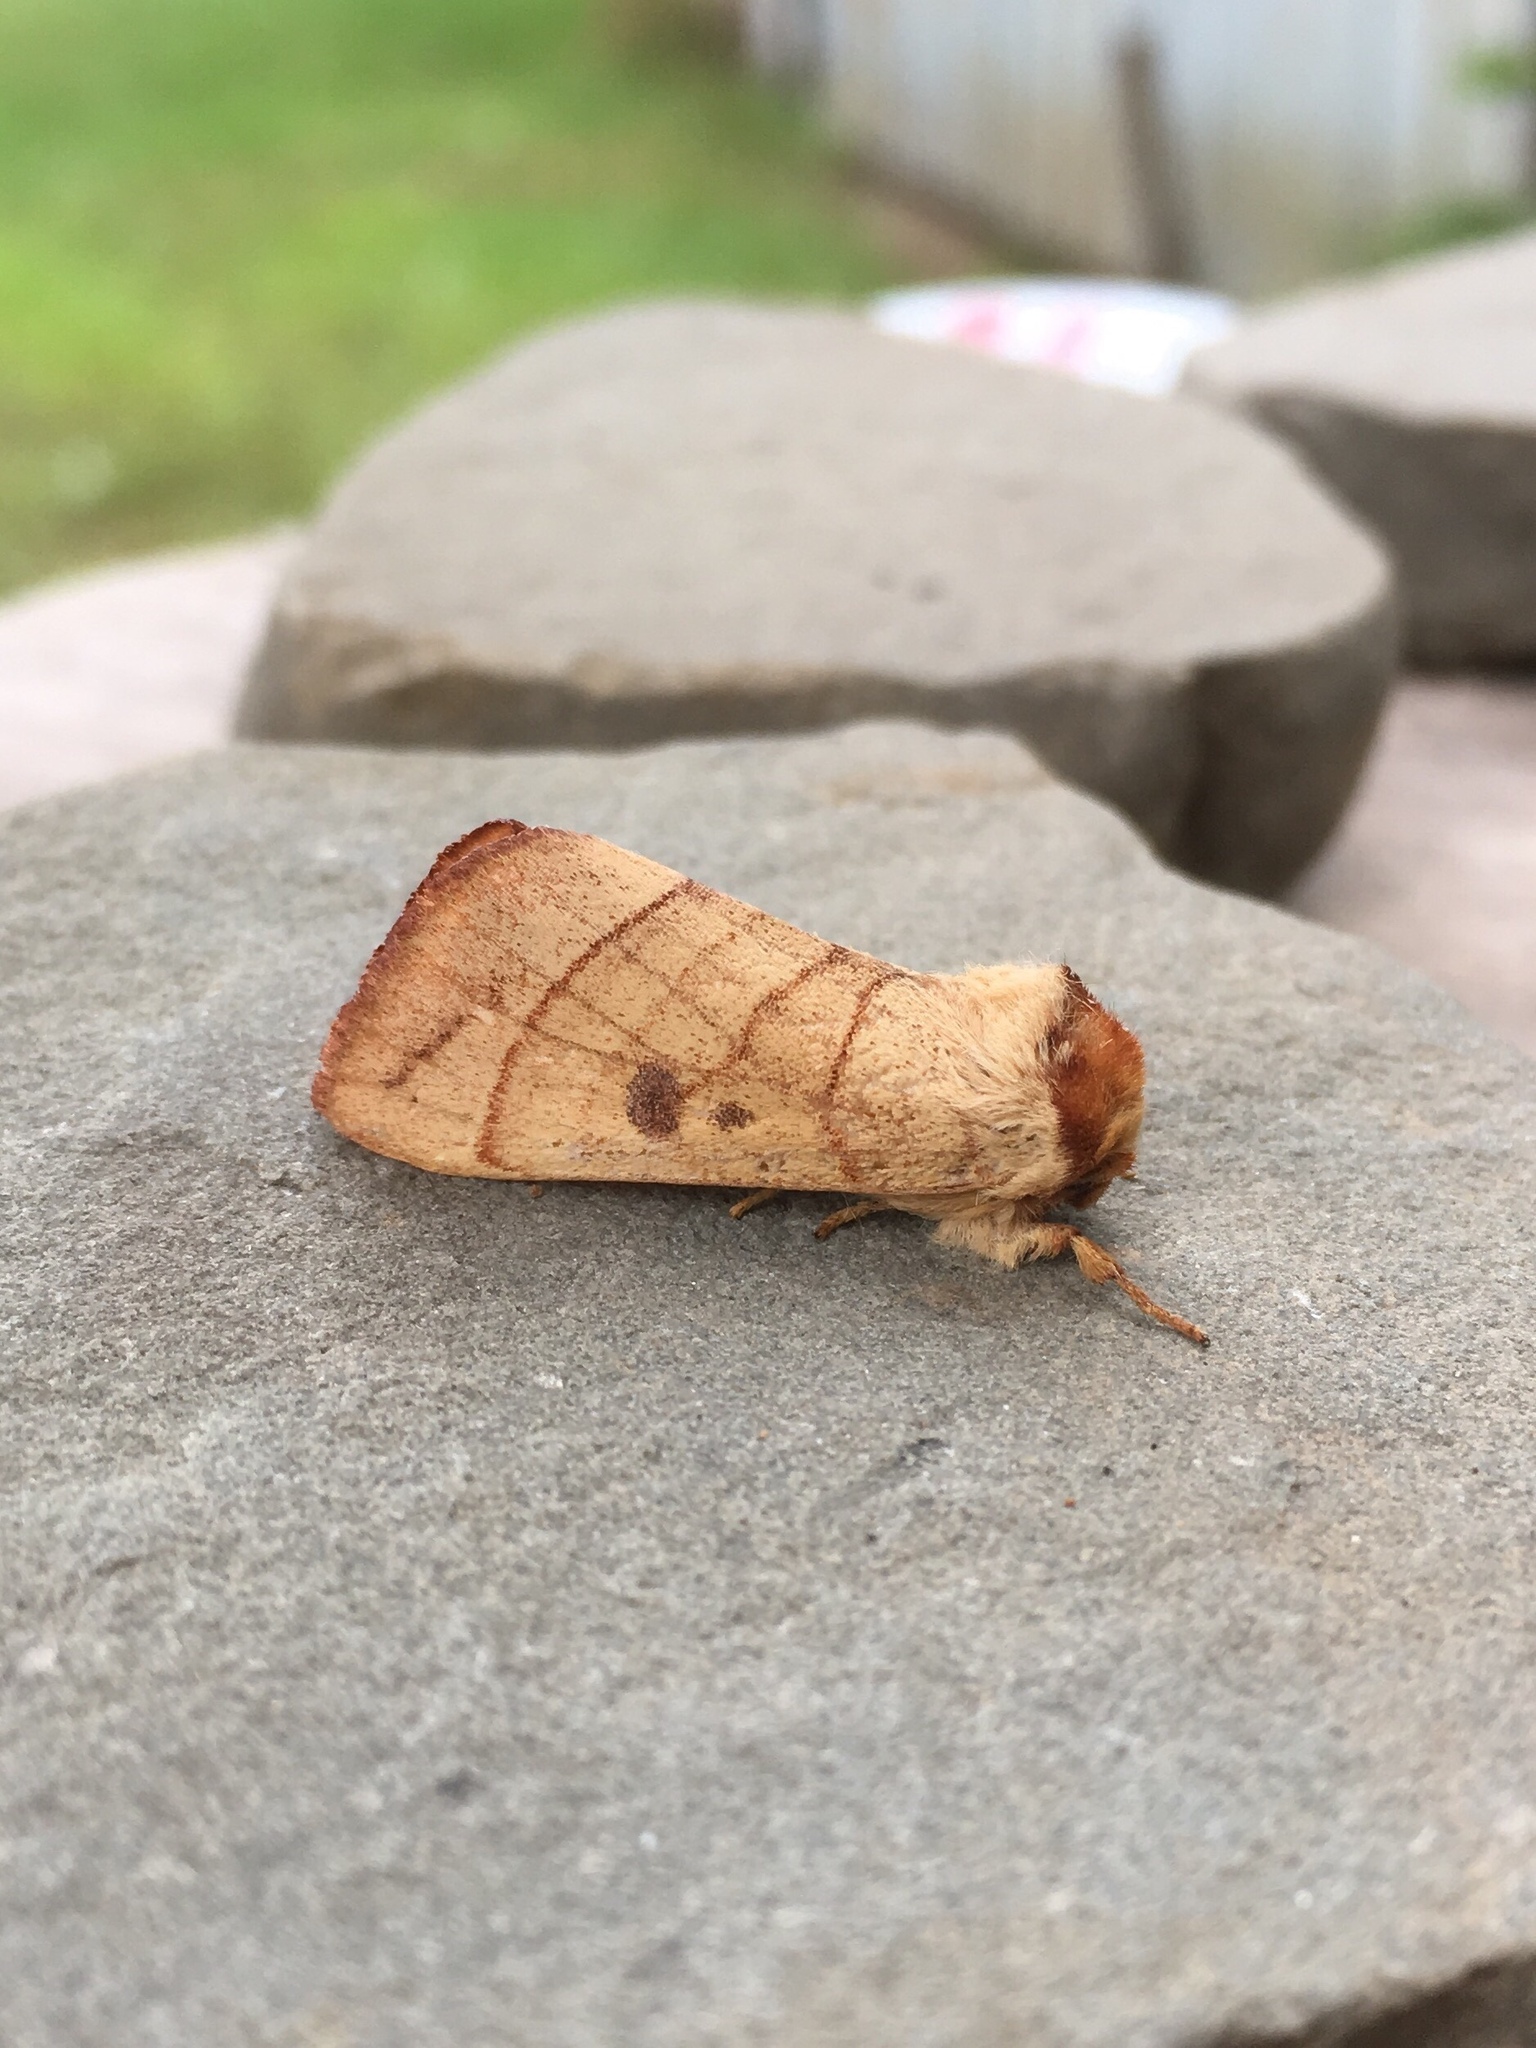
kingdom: Animalia
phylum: Arthropoda
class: Insecta
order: Lepidoptera
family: Notodontidae
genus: Datana
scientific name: Datana perspicua
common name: Spotted datana
